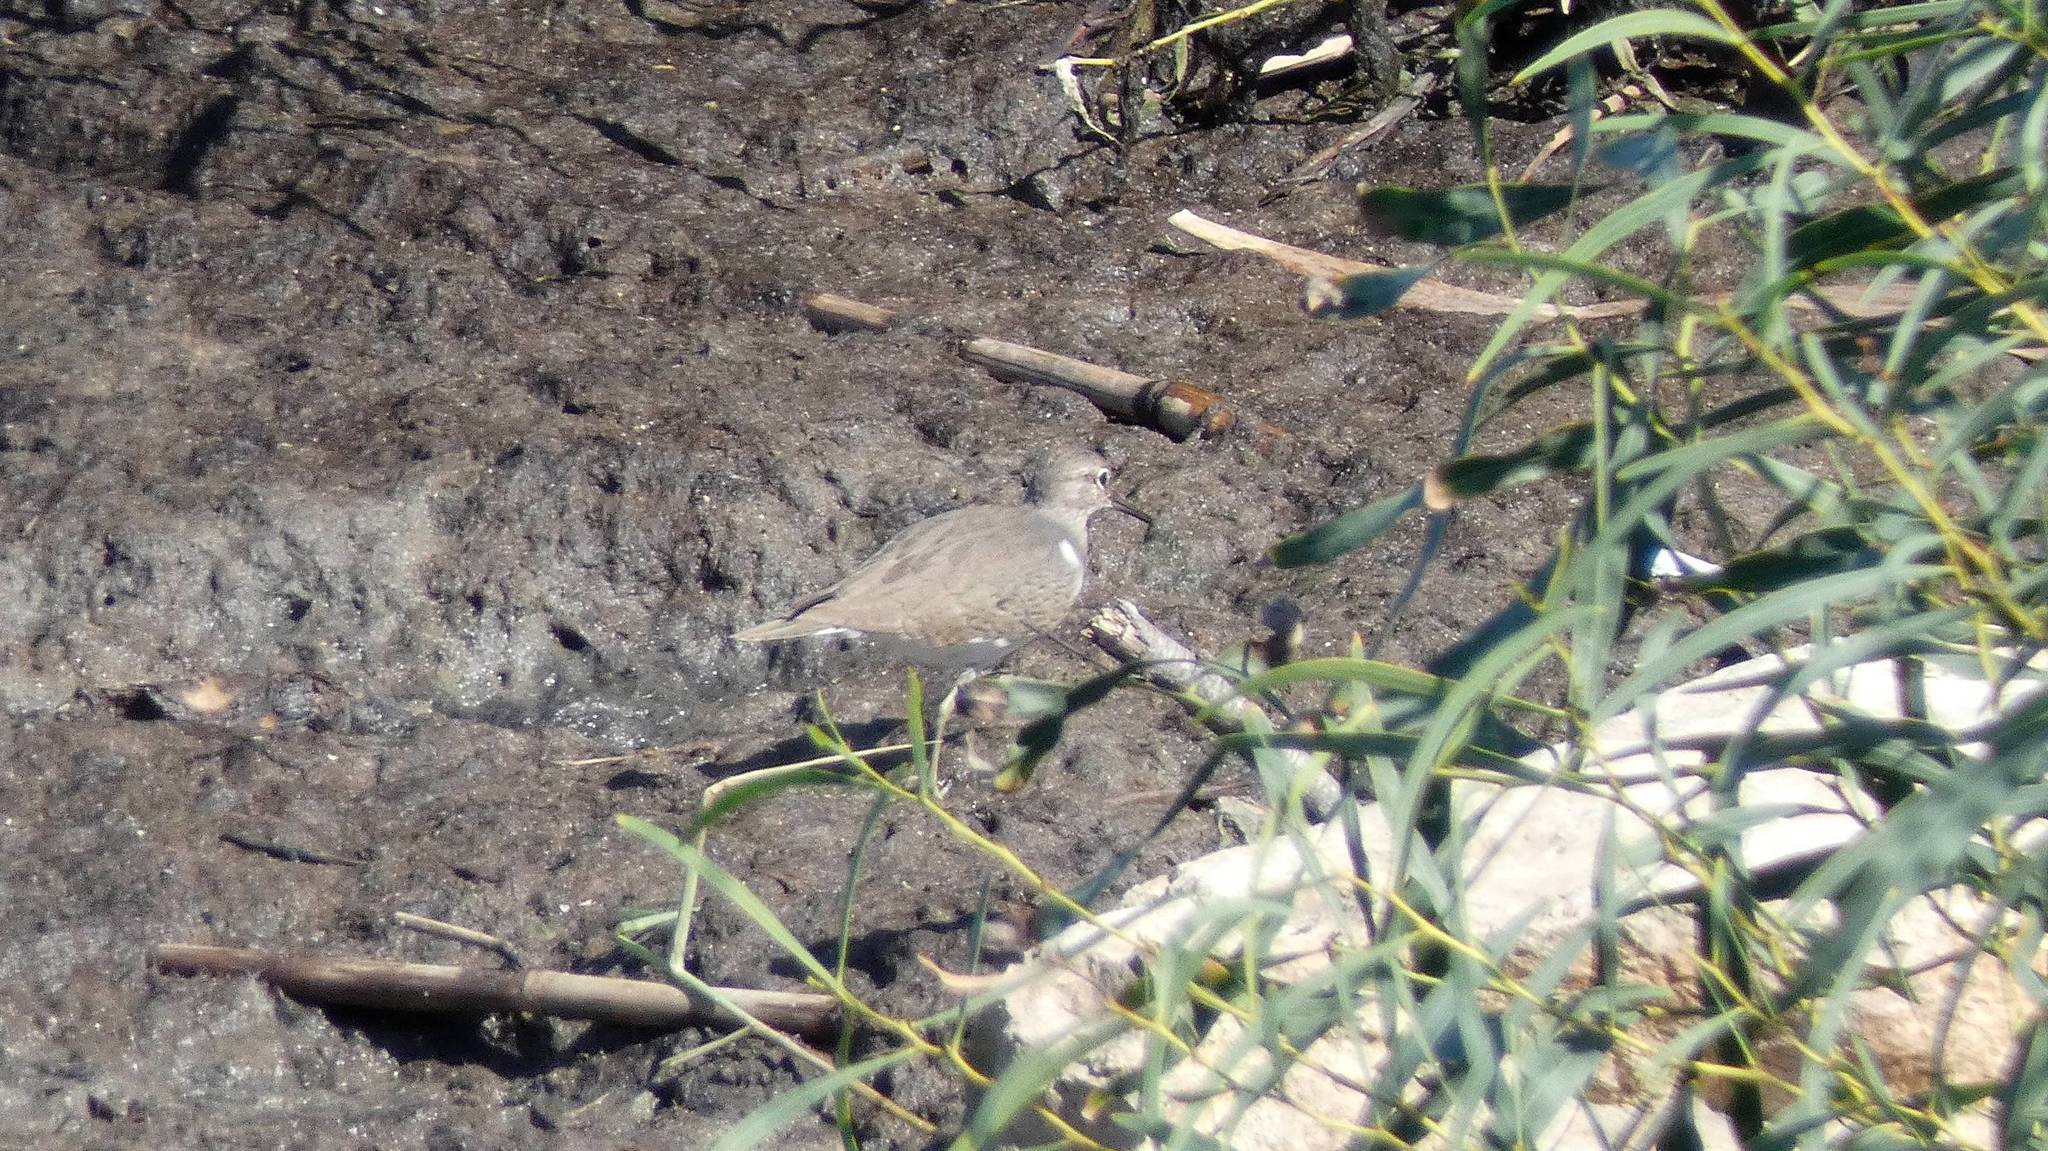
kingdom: Animalia
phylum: Chordata
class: Aves
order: Charadriiformes
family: Scolopacidae
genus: Actitis
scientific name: Actitis hypoleucos
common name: Common sandpiper
